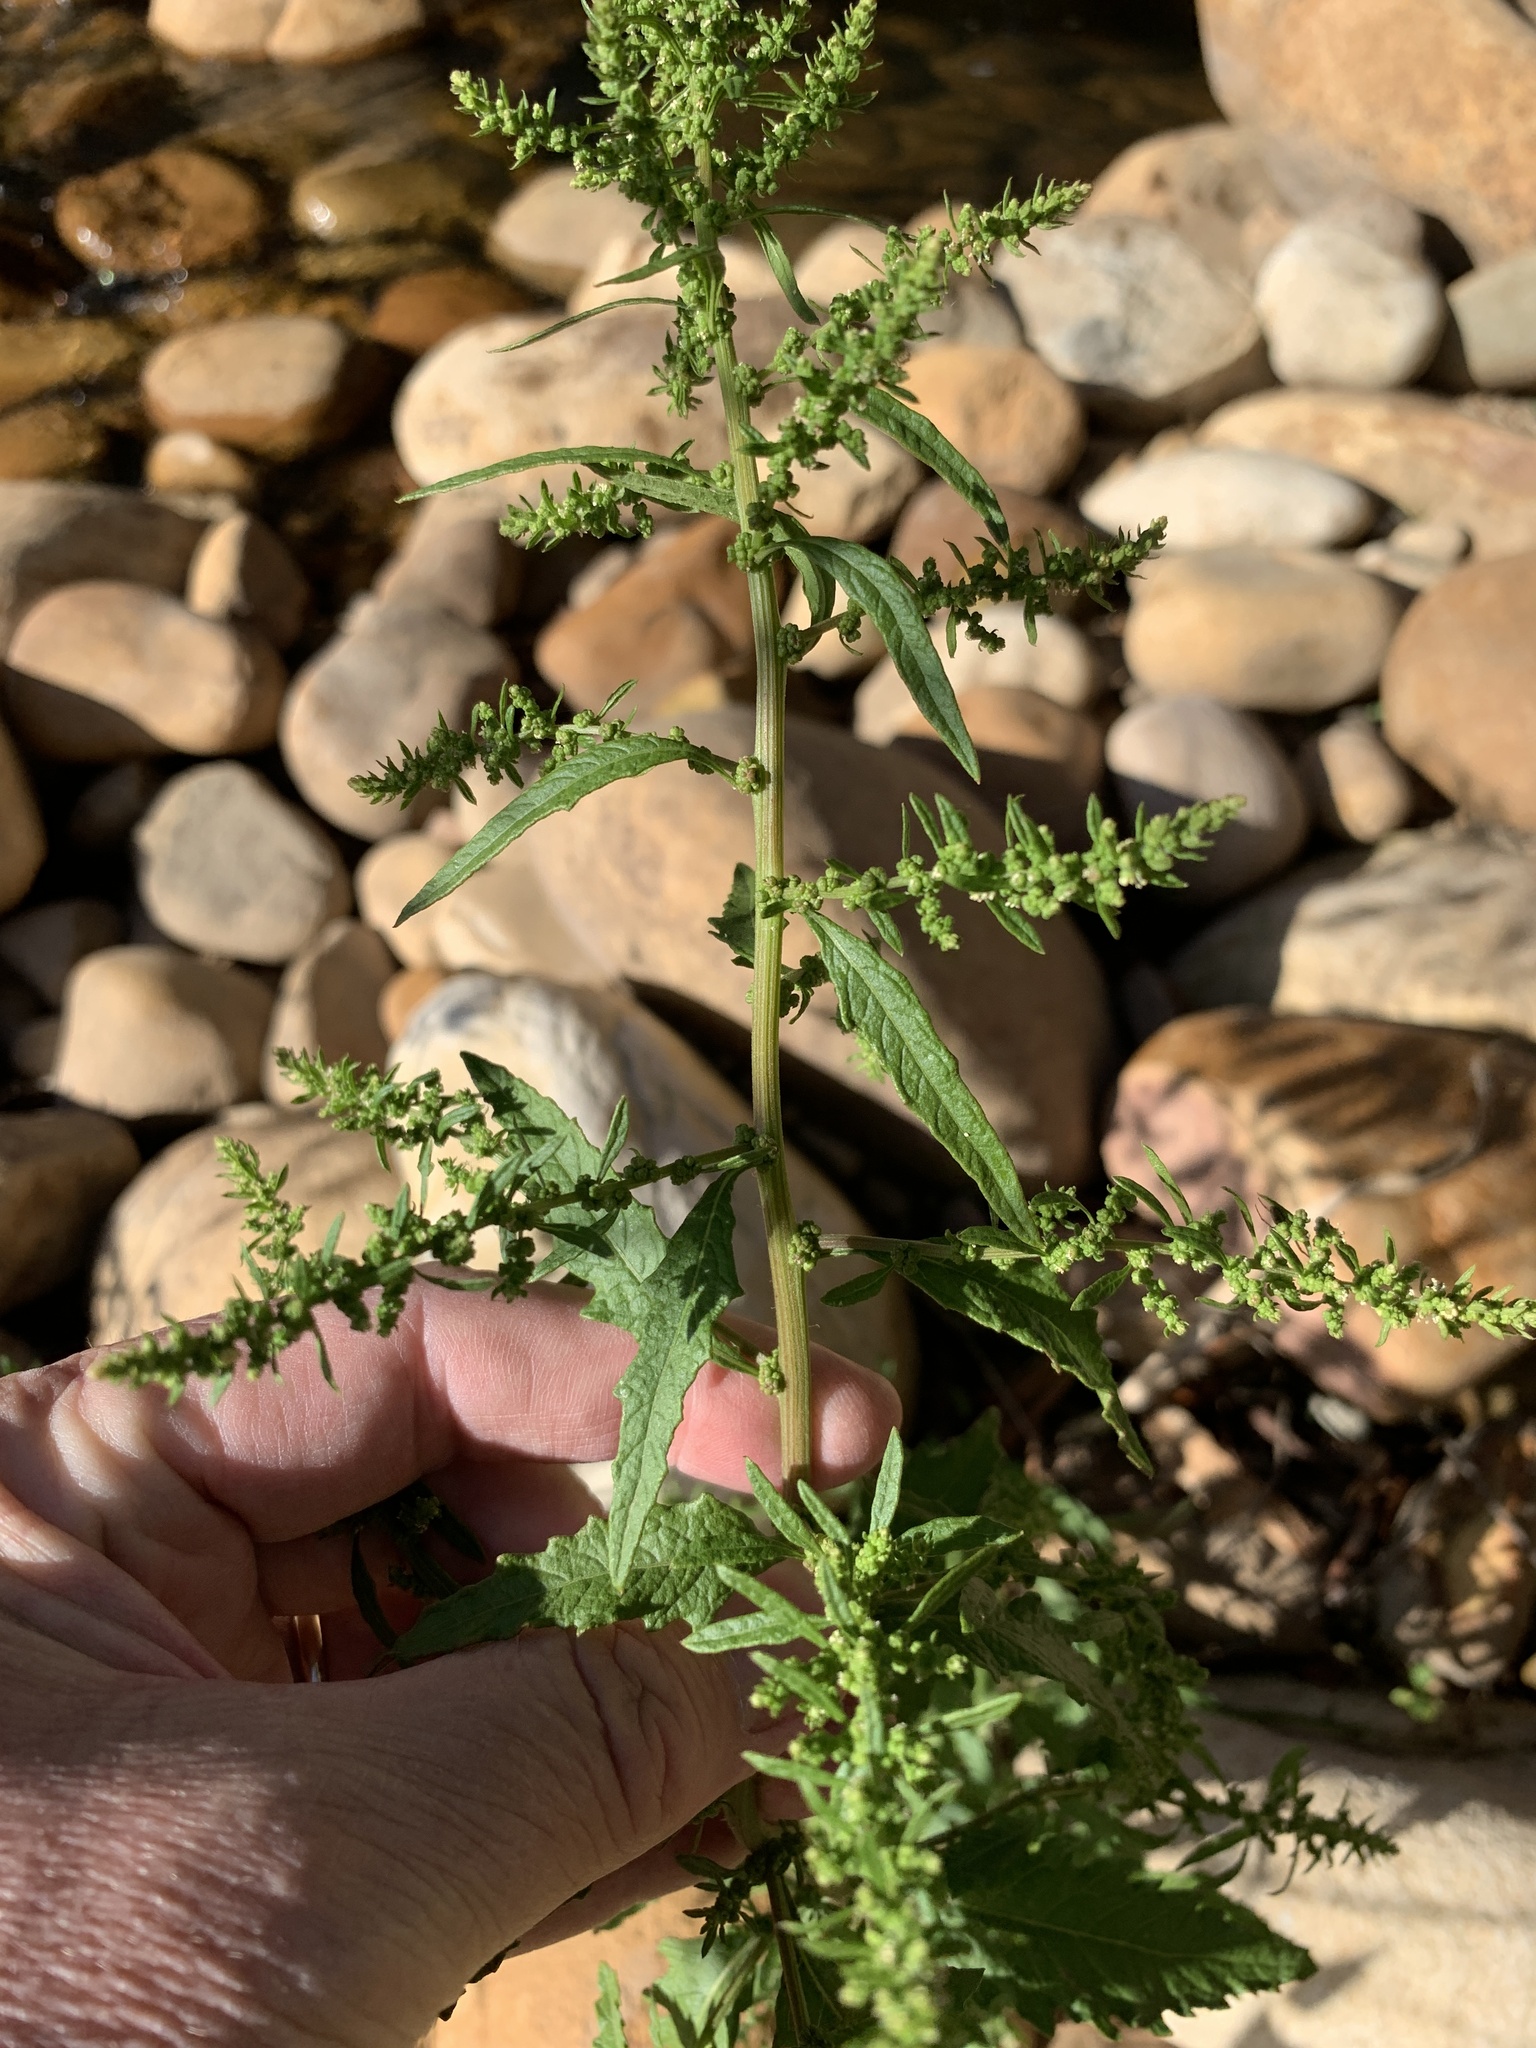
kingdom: Plantae
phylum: Tracheophyta
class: Magnoliopsida
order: Caryophyllales
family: Amaranthaceae
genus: Dysphania
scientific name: Dysphania ambrosioides
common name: Wormseed
